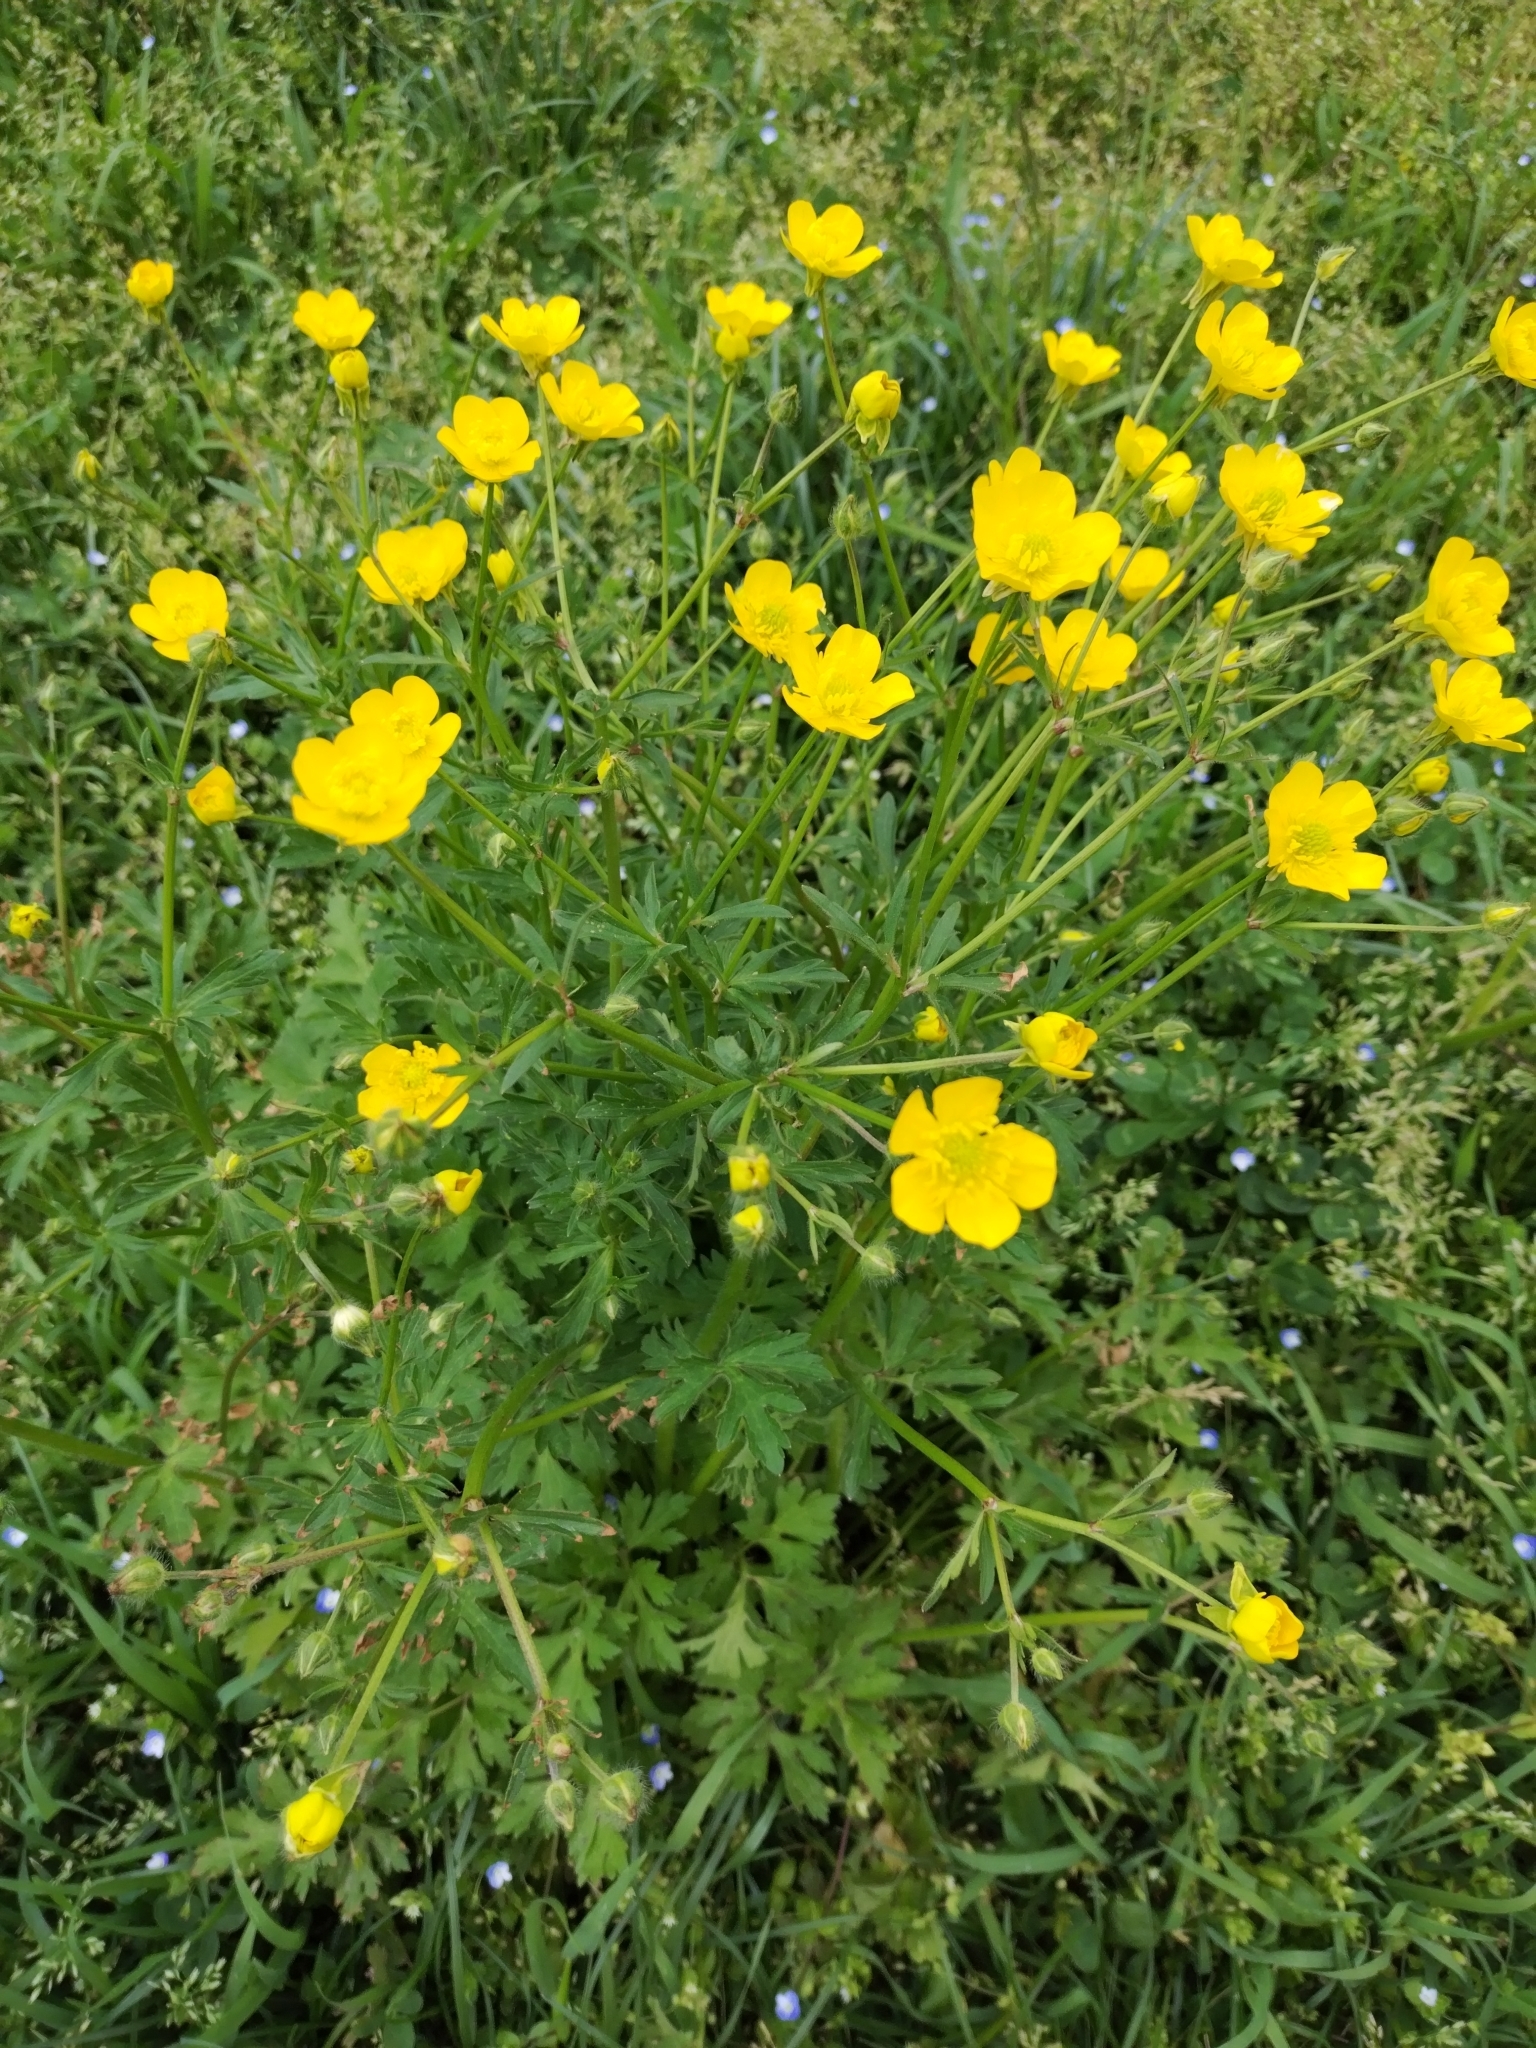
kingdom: Plantae
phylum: Tracheophyta
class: Magnoliopsida
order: Ranunculales
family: Ranunculaceae
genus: Ranunculus
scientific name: Ranunculus bulbosus
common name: Bulbous buttercup
